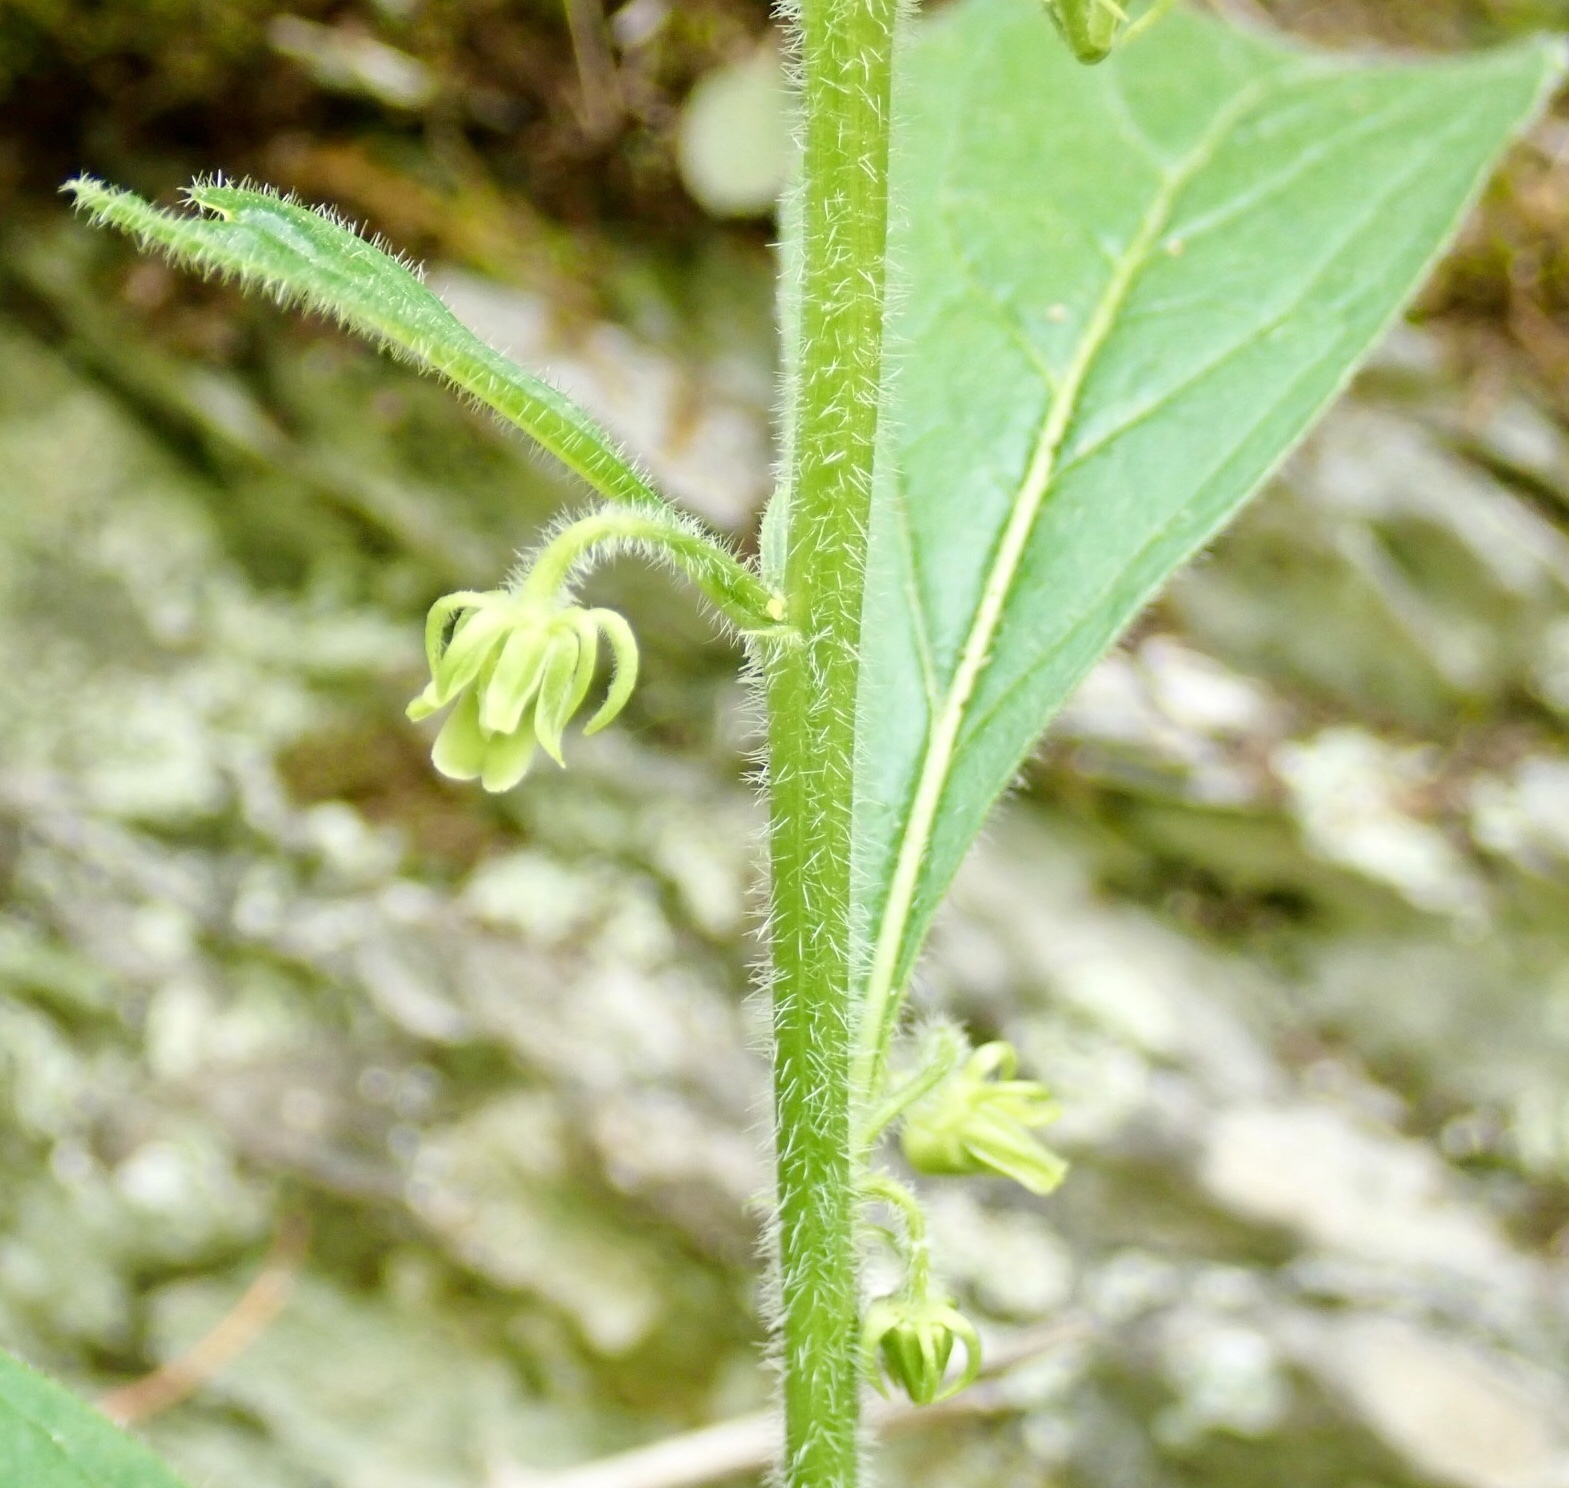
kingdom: Plantae
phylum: Tracheophyta
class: Magnoliopsida
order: Malpighiales
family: Violaceae
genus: Cubelium
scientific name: Cubelium concolor
